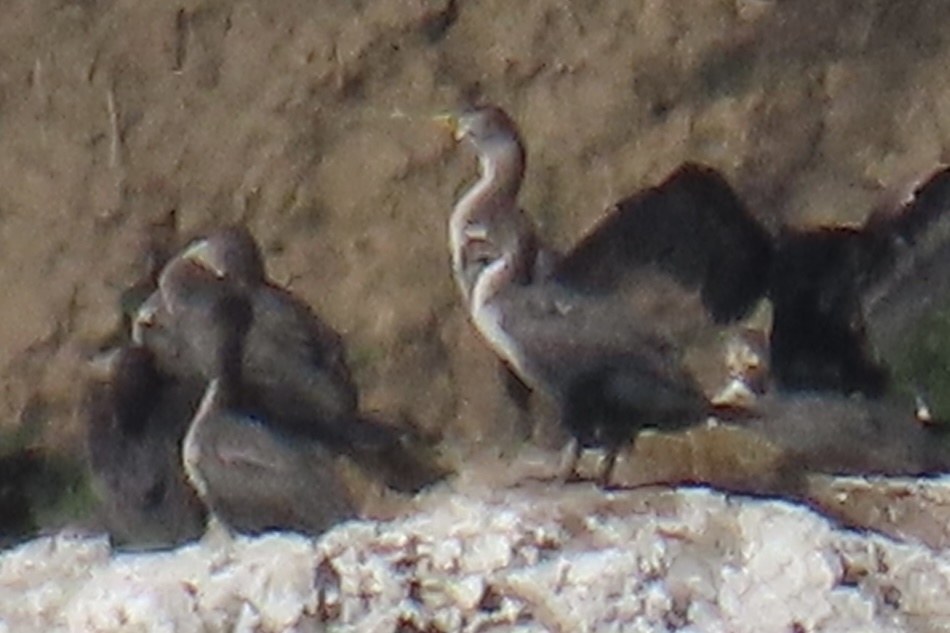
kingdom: Animalia
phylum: Chordata
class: Aves
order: Suliformes
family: Phalacrocoracidae
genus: Phalacrocorax
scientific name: Phalacrocorax auritus
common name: Double-crested cormorant
